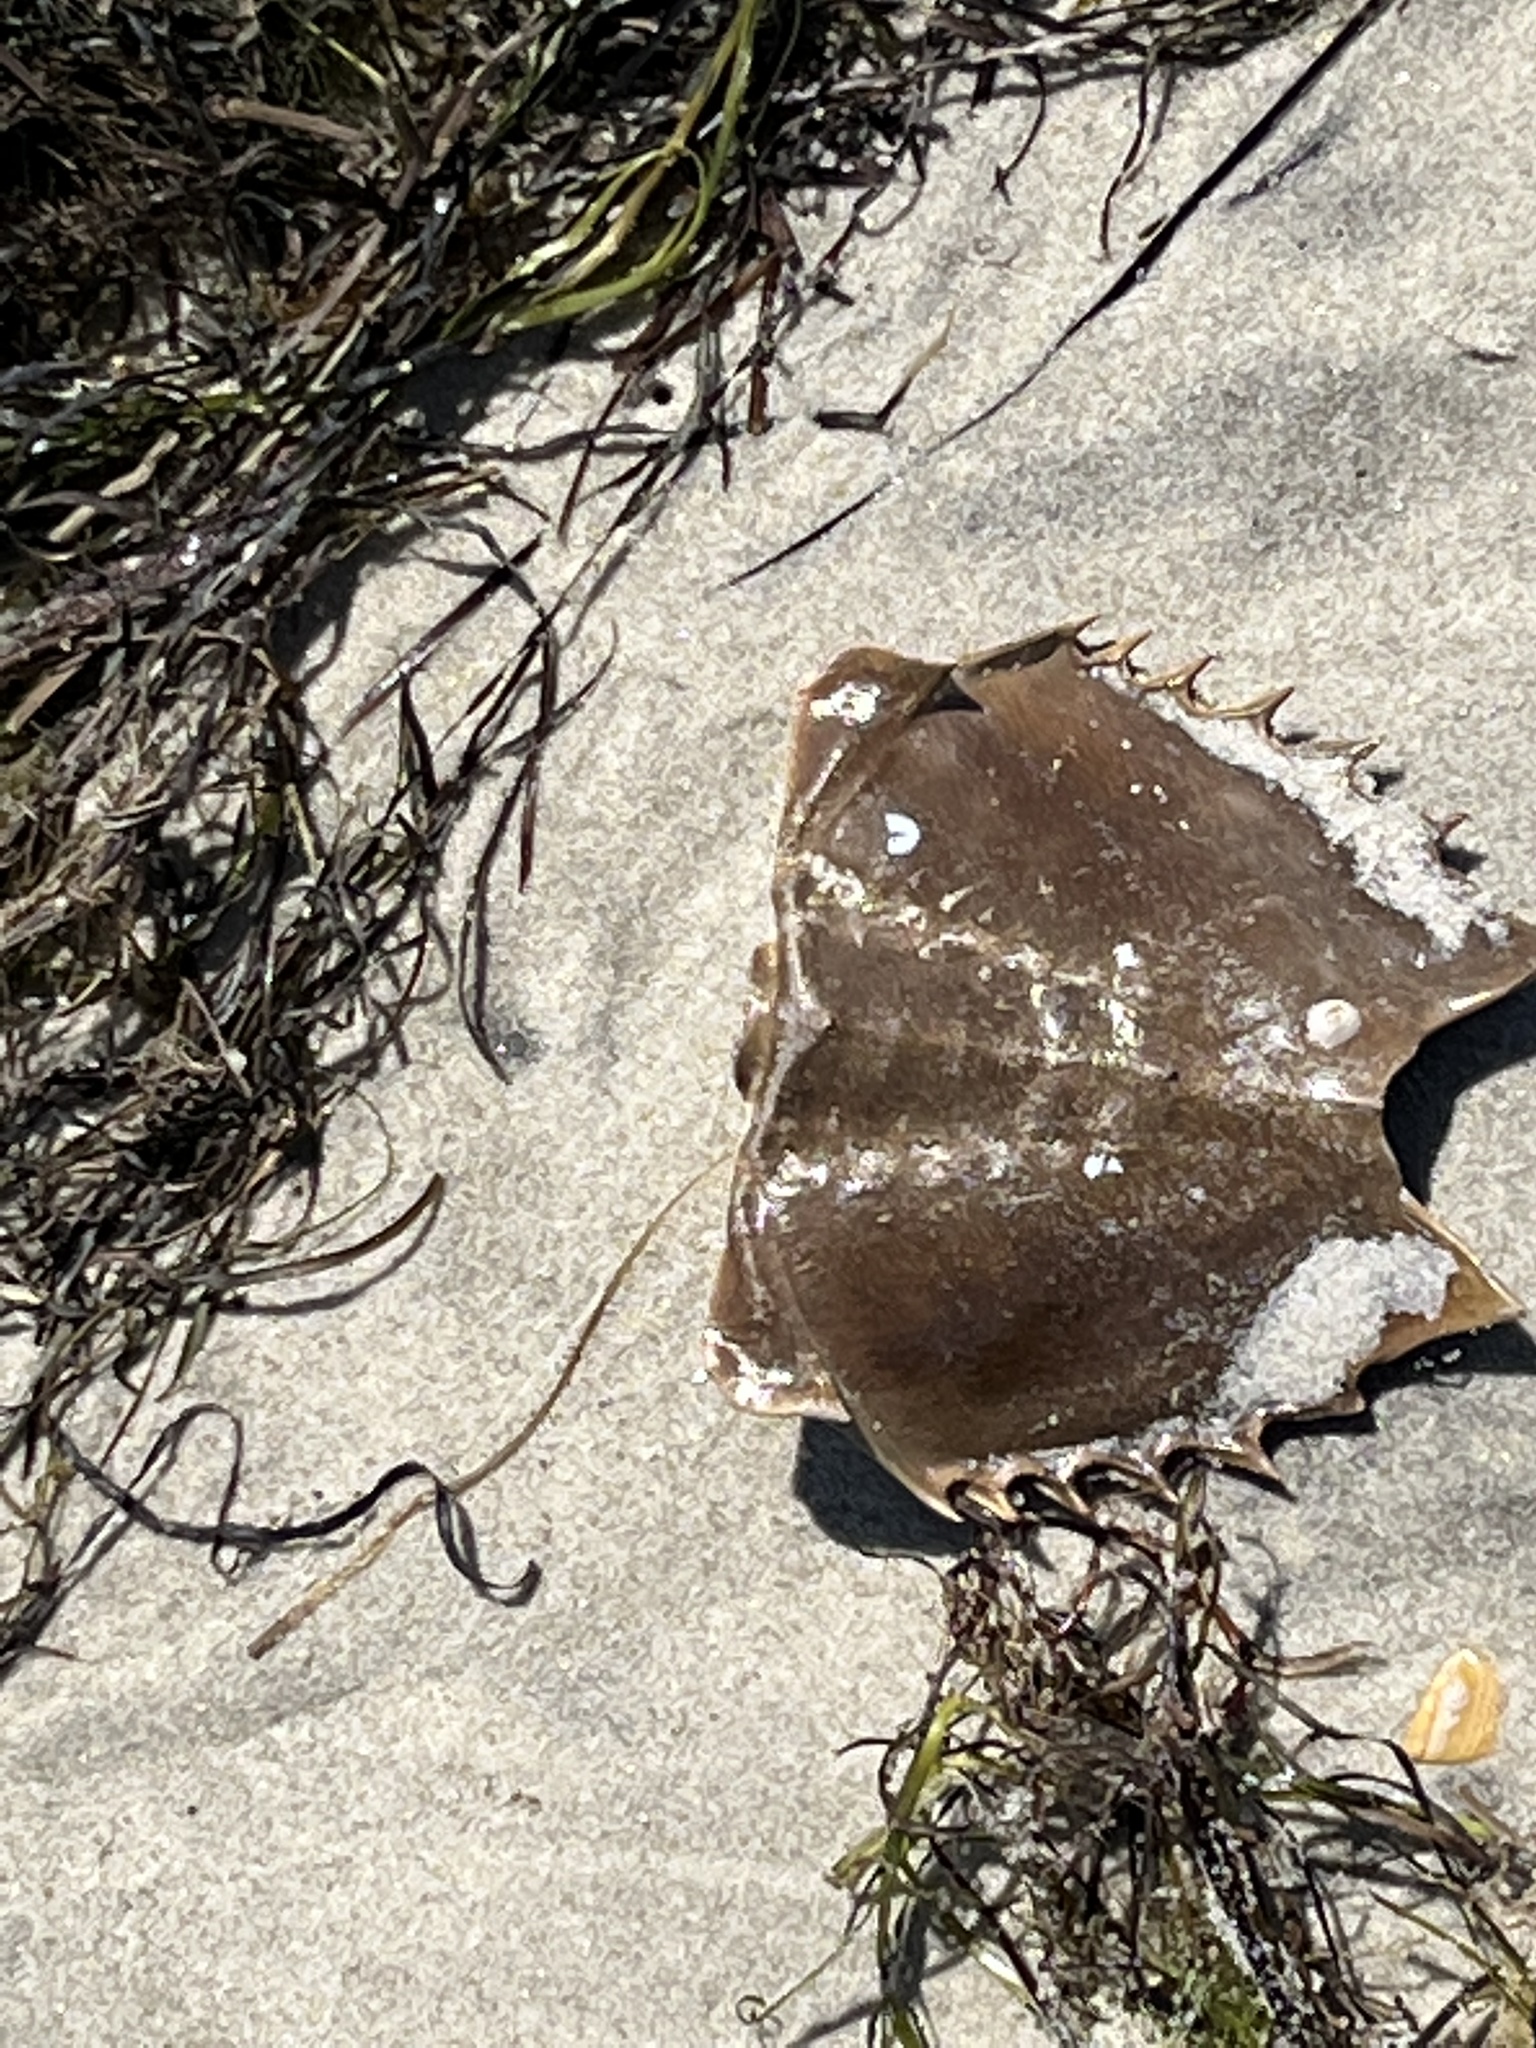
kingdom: Animalia
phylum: Arthropoda
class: Merostomata
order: Xiphosurida
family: Limulidae
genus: Limulus
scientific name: Limulus polyphemus
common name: Horseshoe crab
